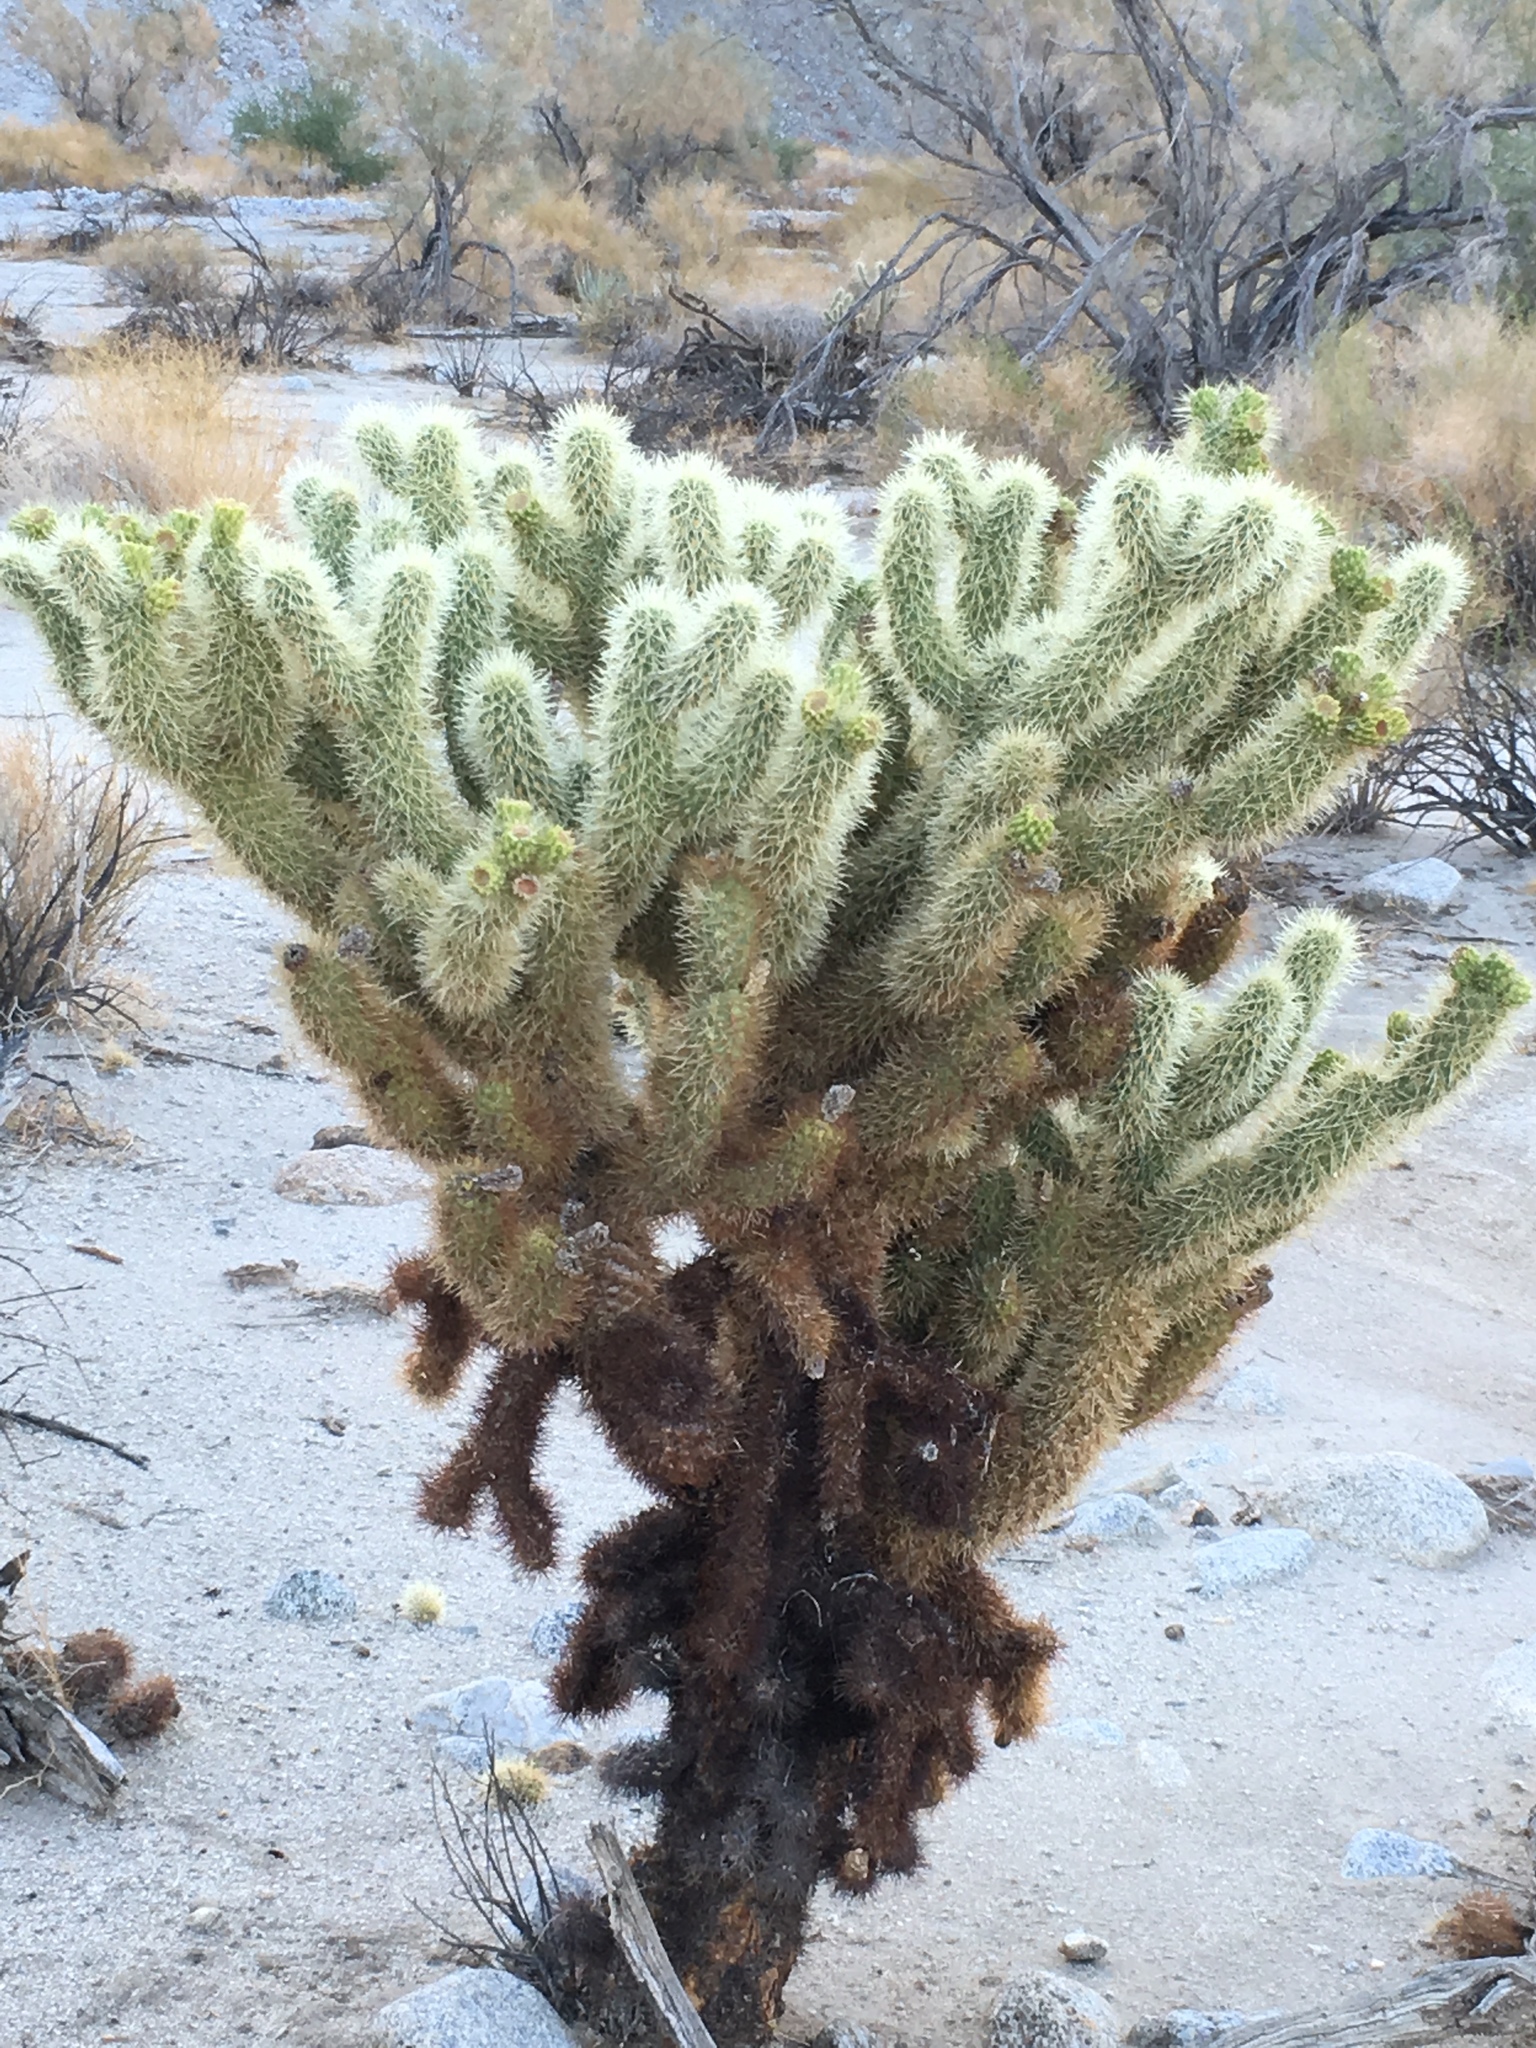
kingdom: Plantae
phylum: Tracheophyta
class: Magnoliopsida
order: Caryophyllales
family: Cactaceae
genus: Cylindropuntia
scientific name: Cylindropuntia fosbergii
